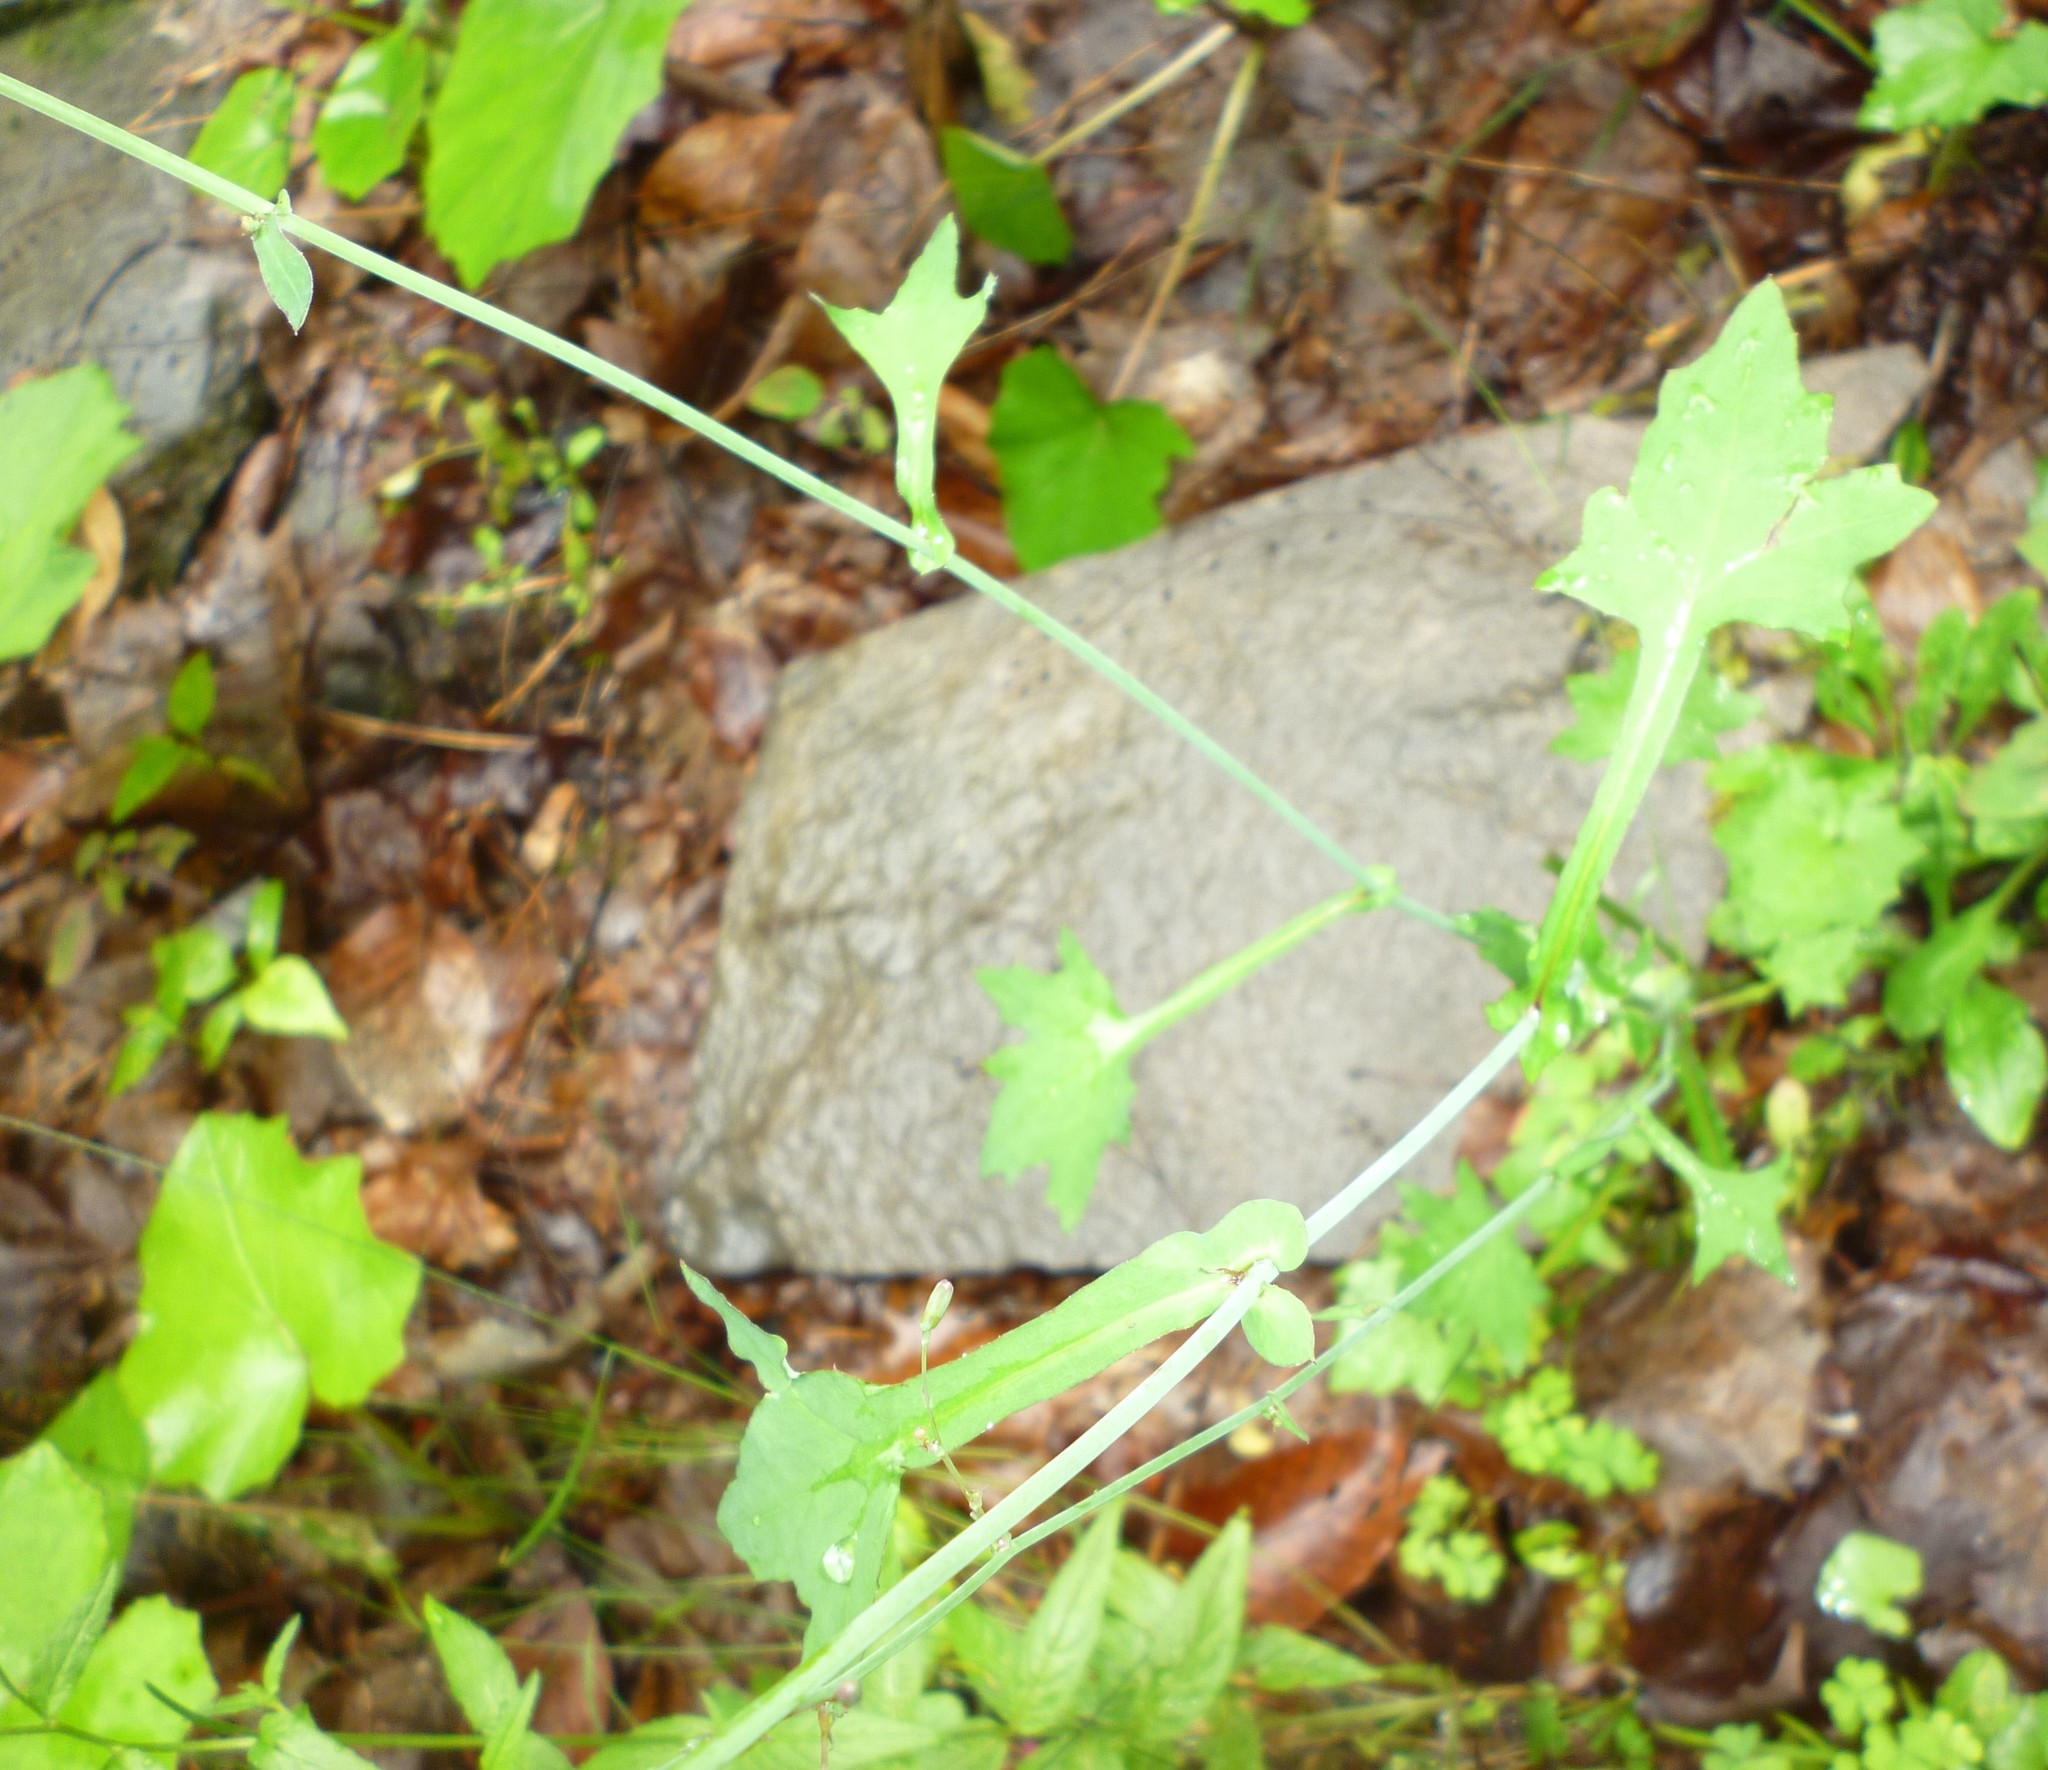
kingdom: Plantae
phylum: Tracheophyta
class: Magnoliopsida
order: Asterales
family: Asteraceae
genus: Mycelis
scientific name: Mycelis muralis
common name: Wall lettuce
